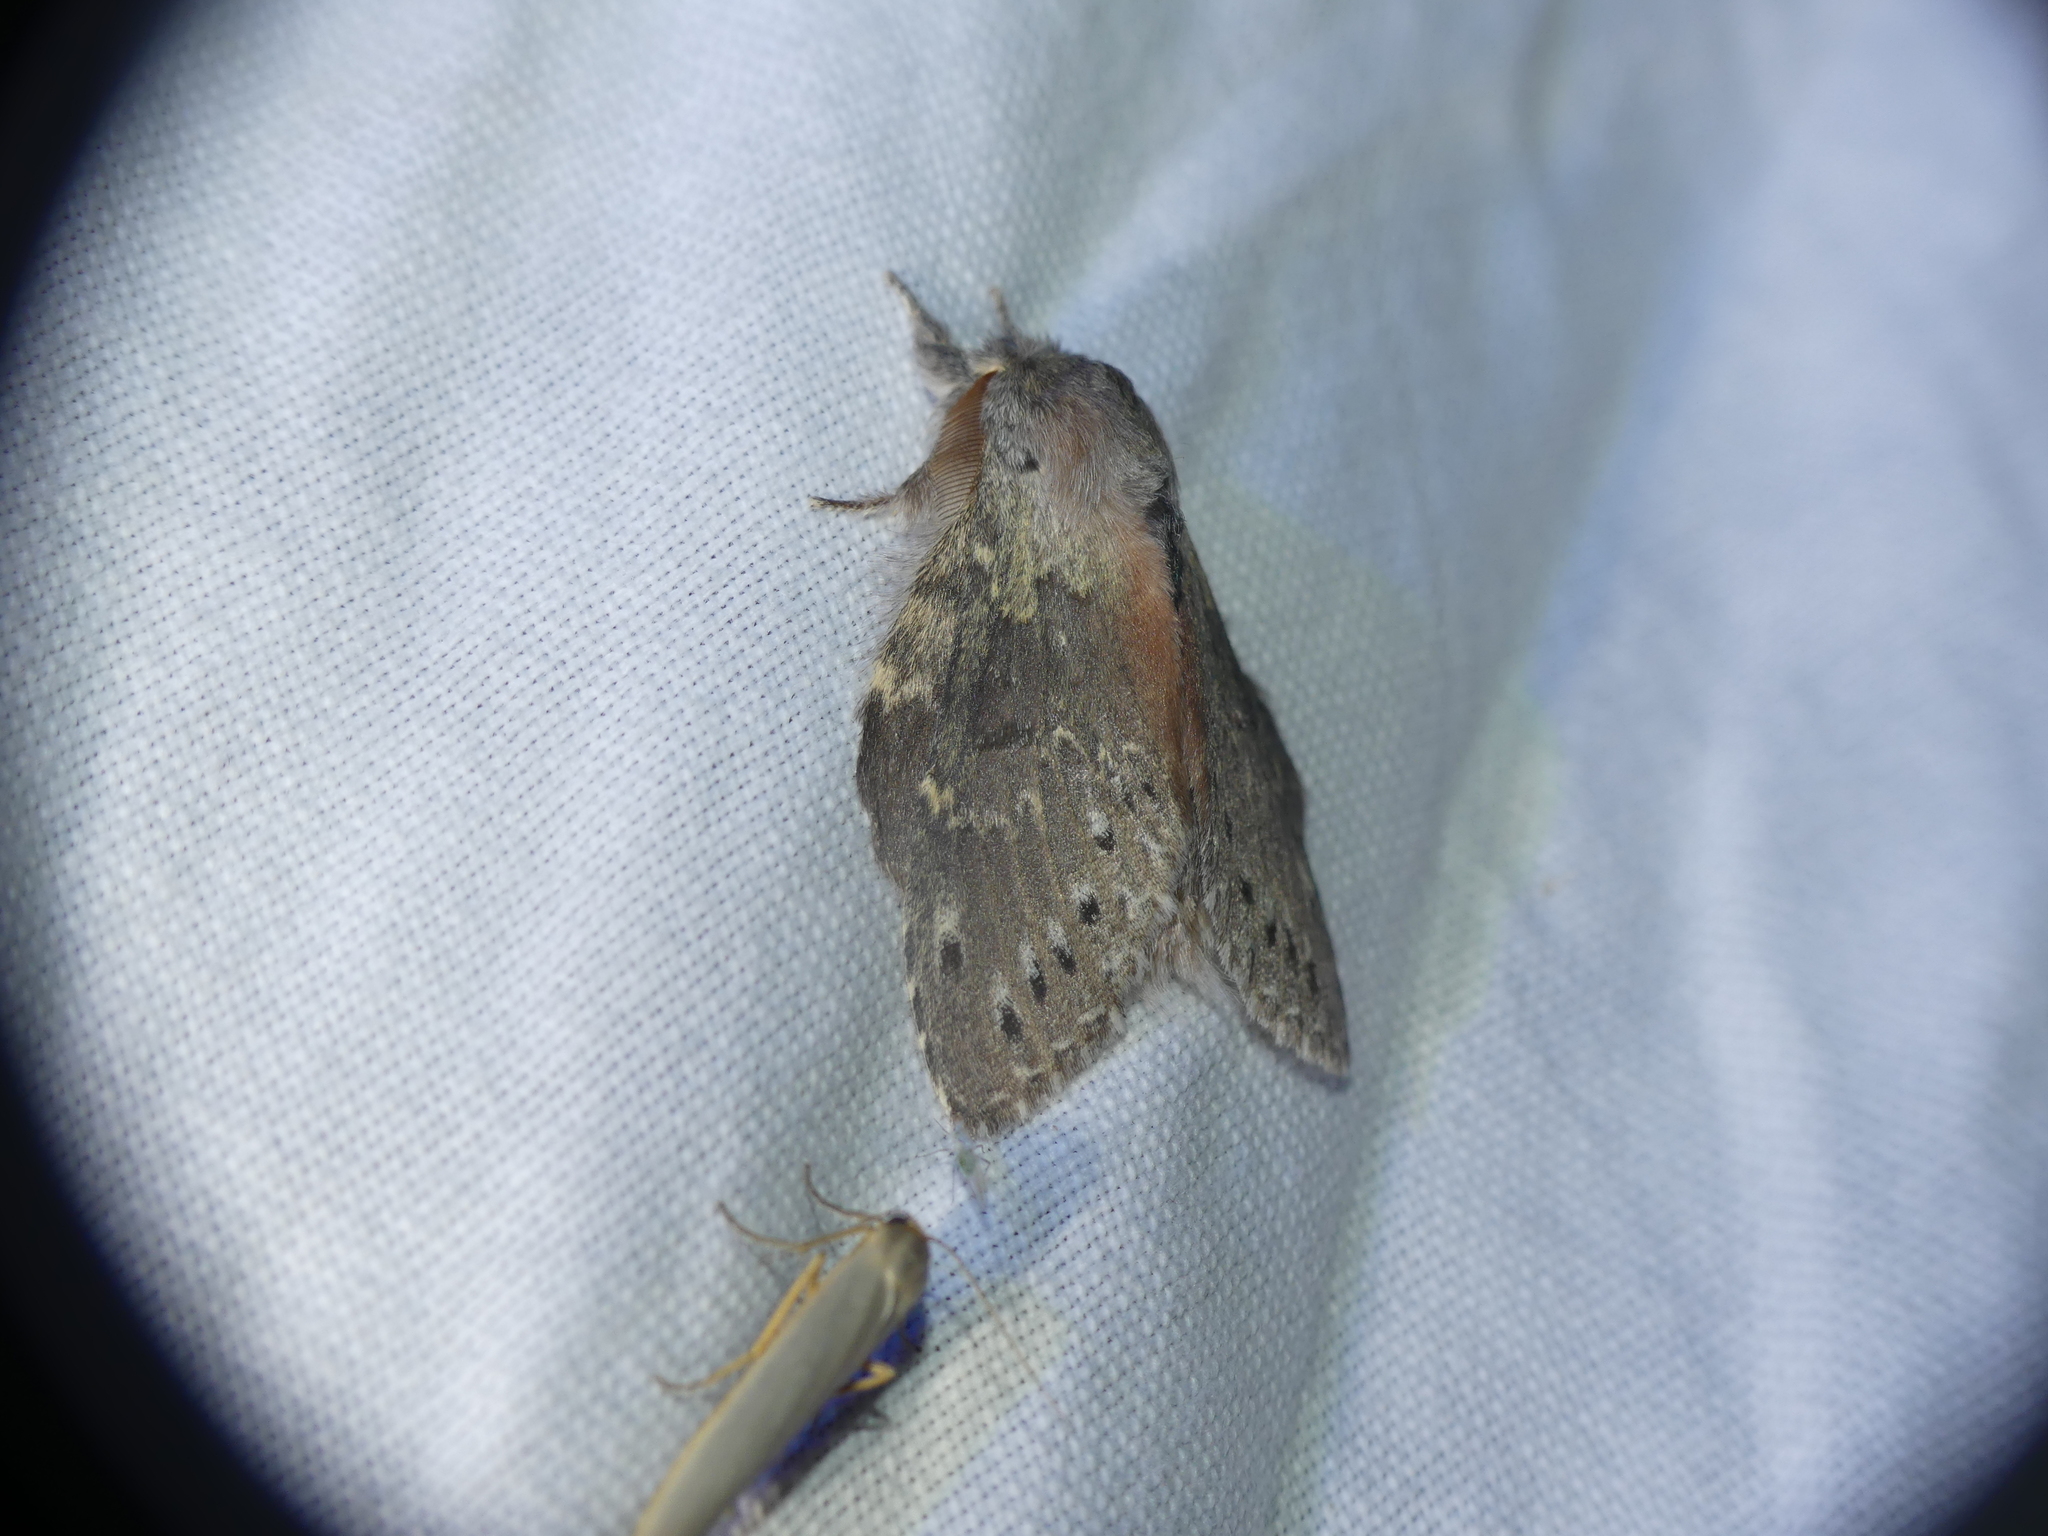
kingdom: Animalia
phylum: Arthropoda
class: Insecta
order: Lepidoptera
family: Notodontidae
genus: Stauropus
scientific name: Stauropus fagi
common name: Lobster moth
